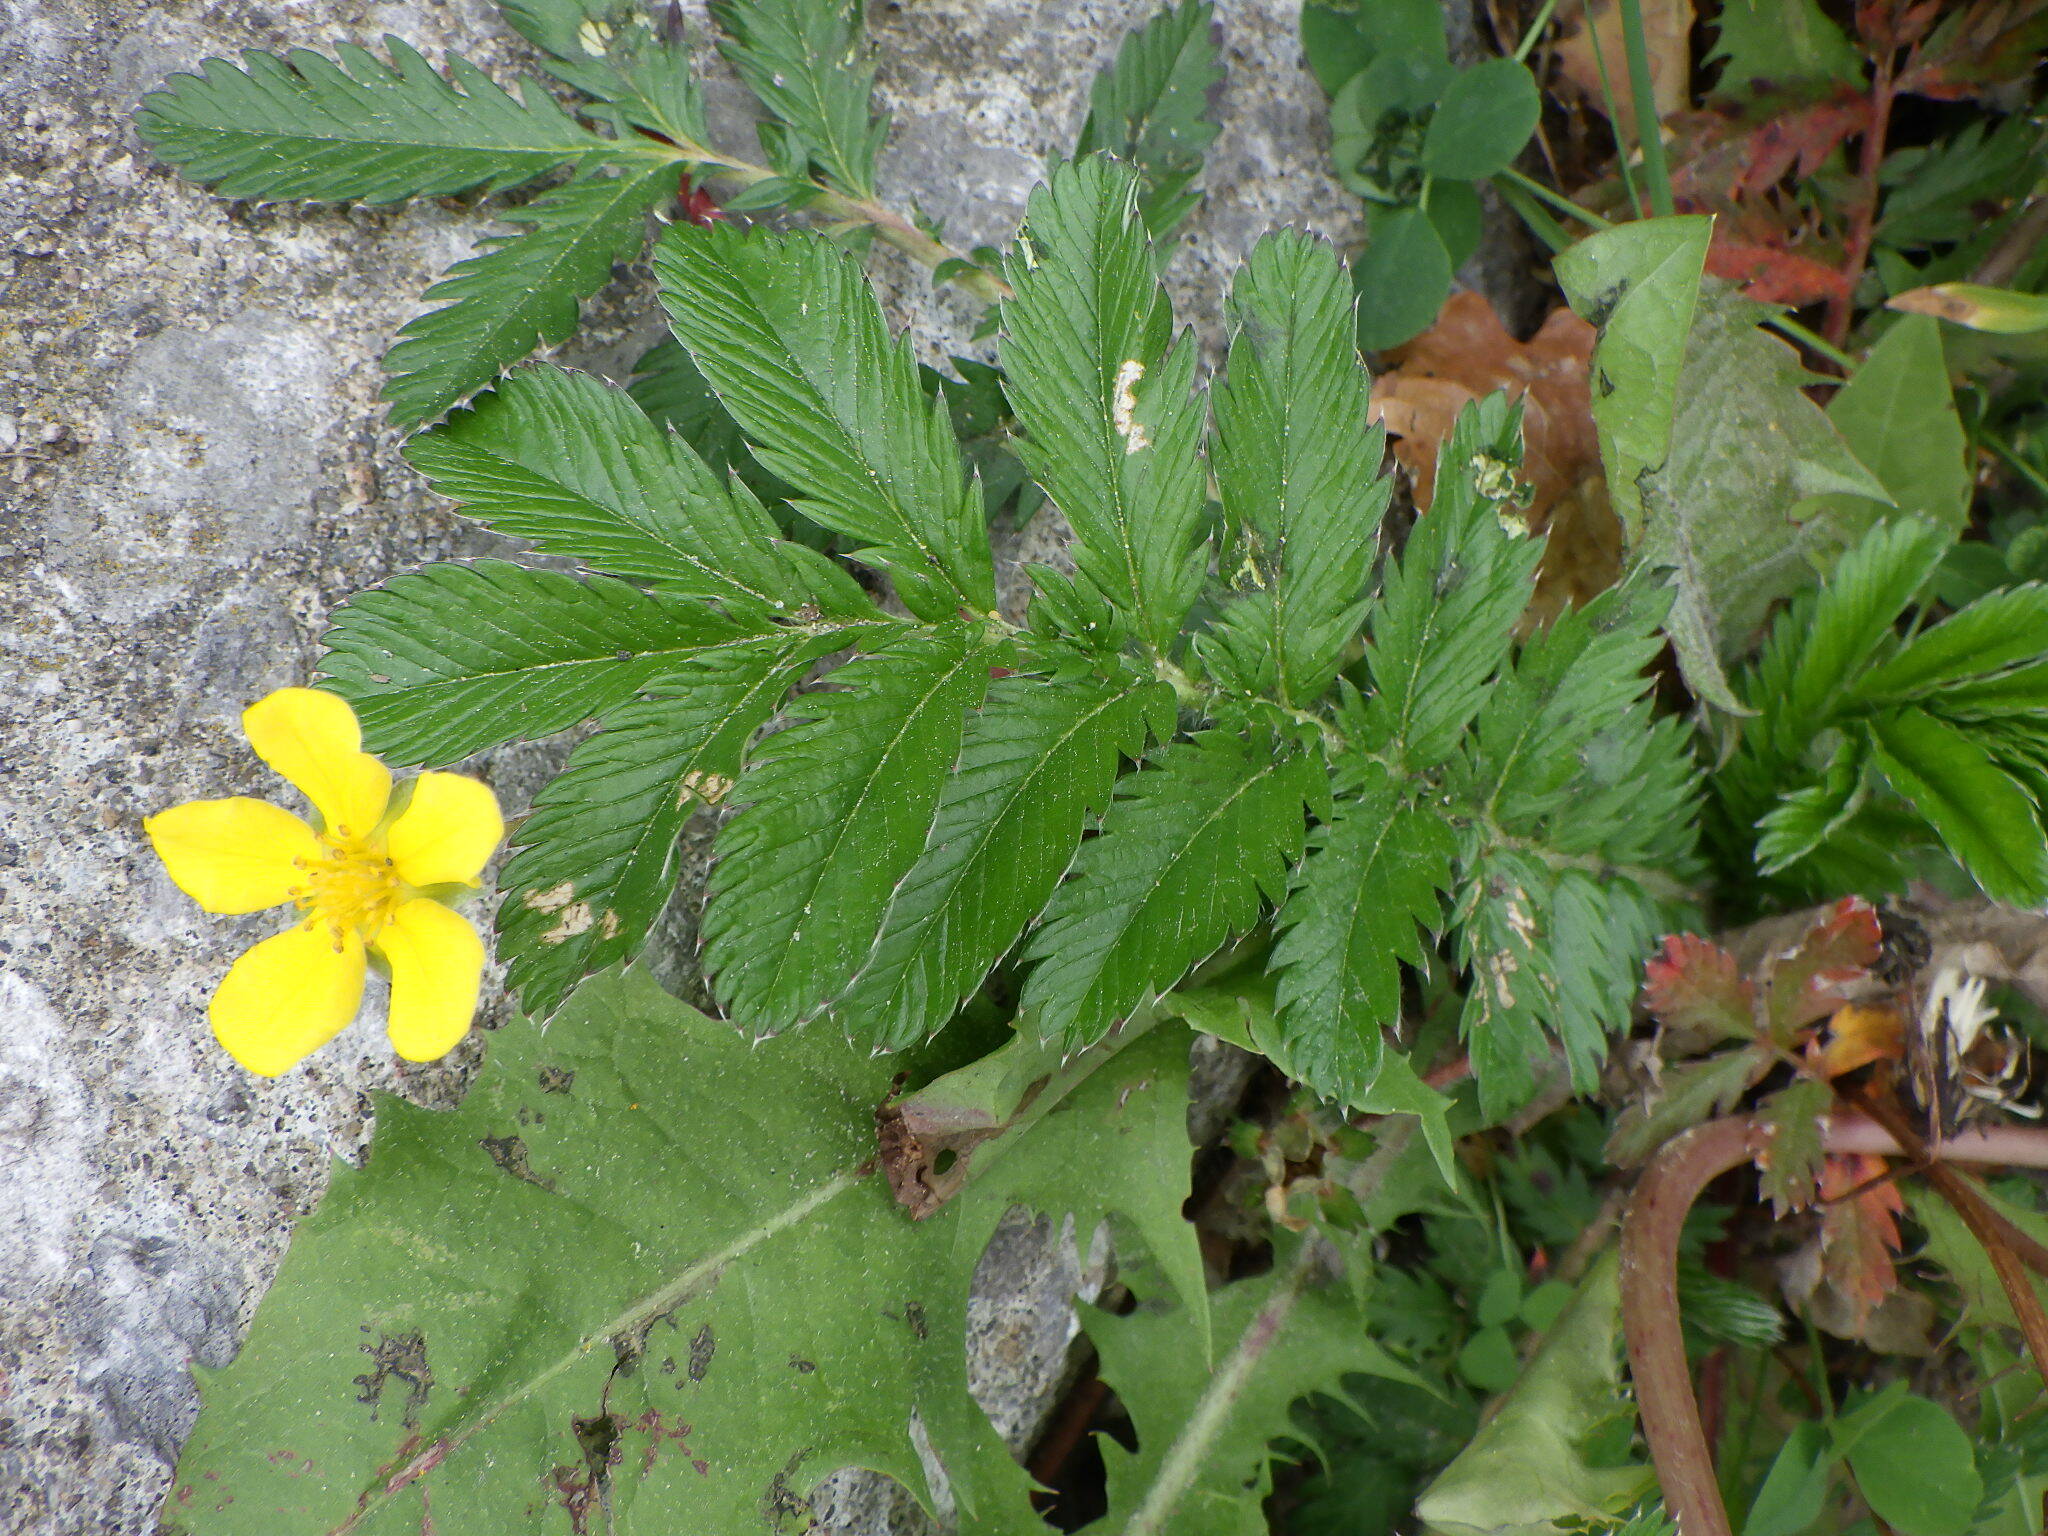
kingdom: Plantae
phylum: Tracheophyta
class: Magnoliopsida
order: Rosales
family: Rosaceae
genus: Argentina
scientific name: Argentina anserina
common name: Common silverweed
